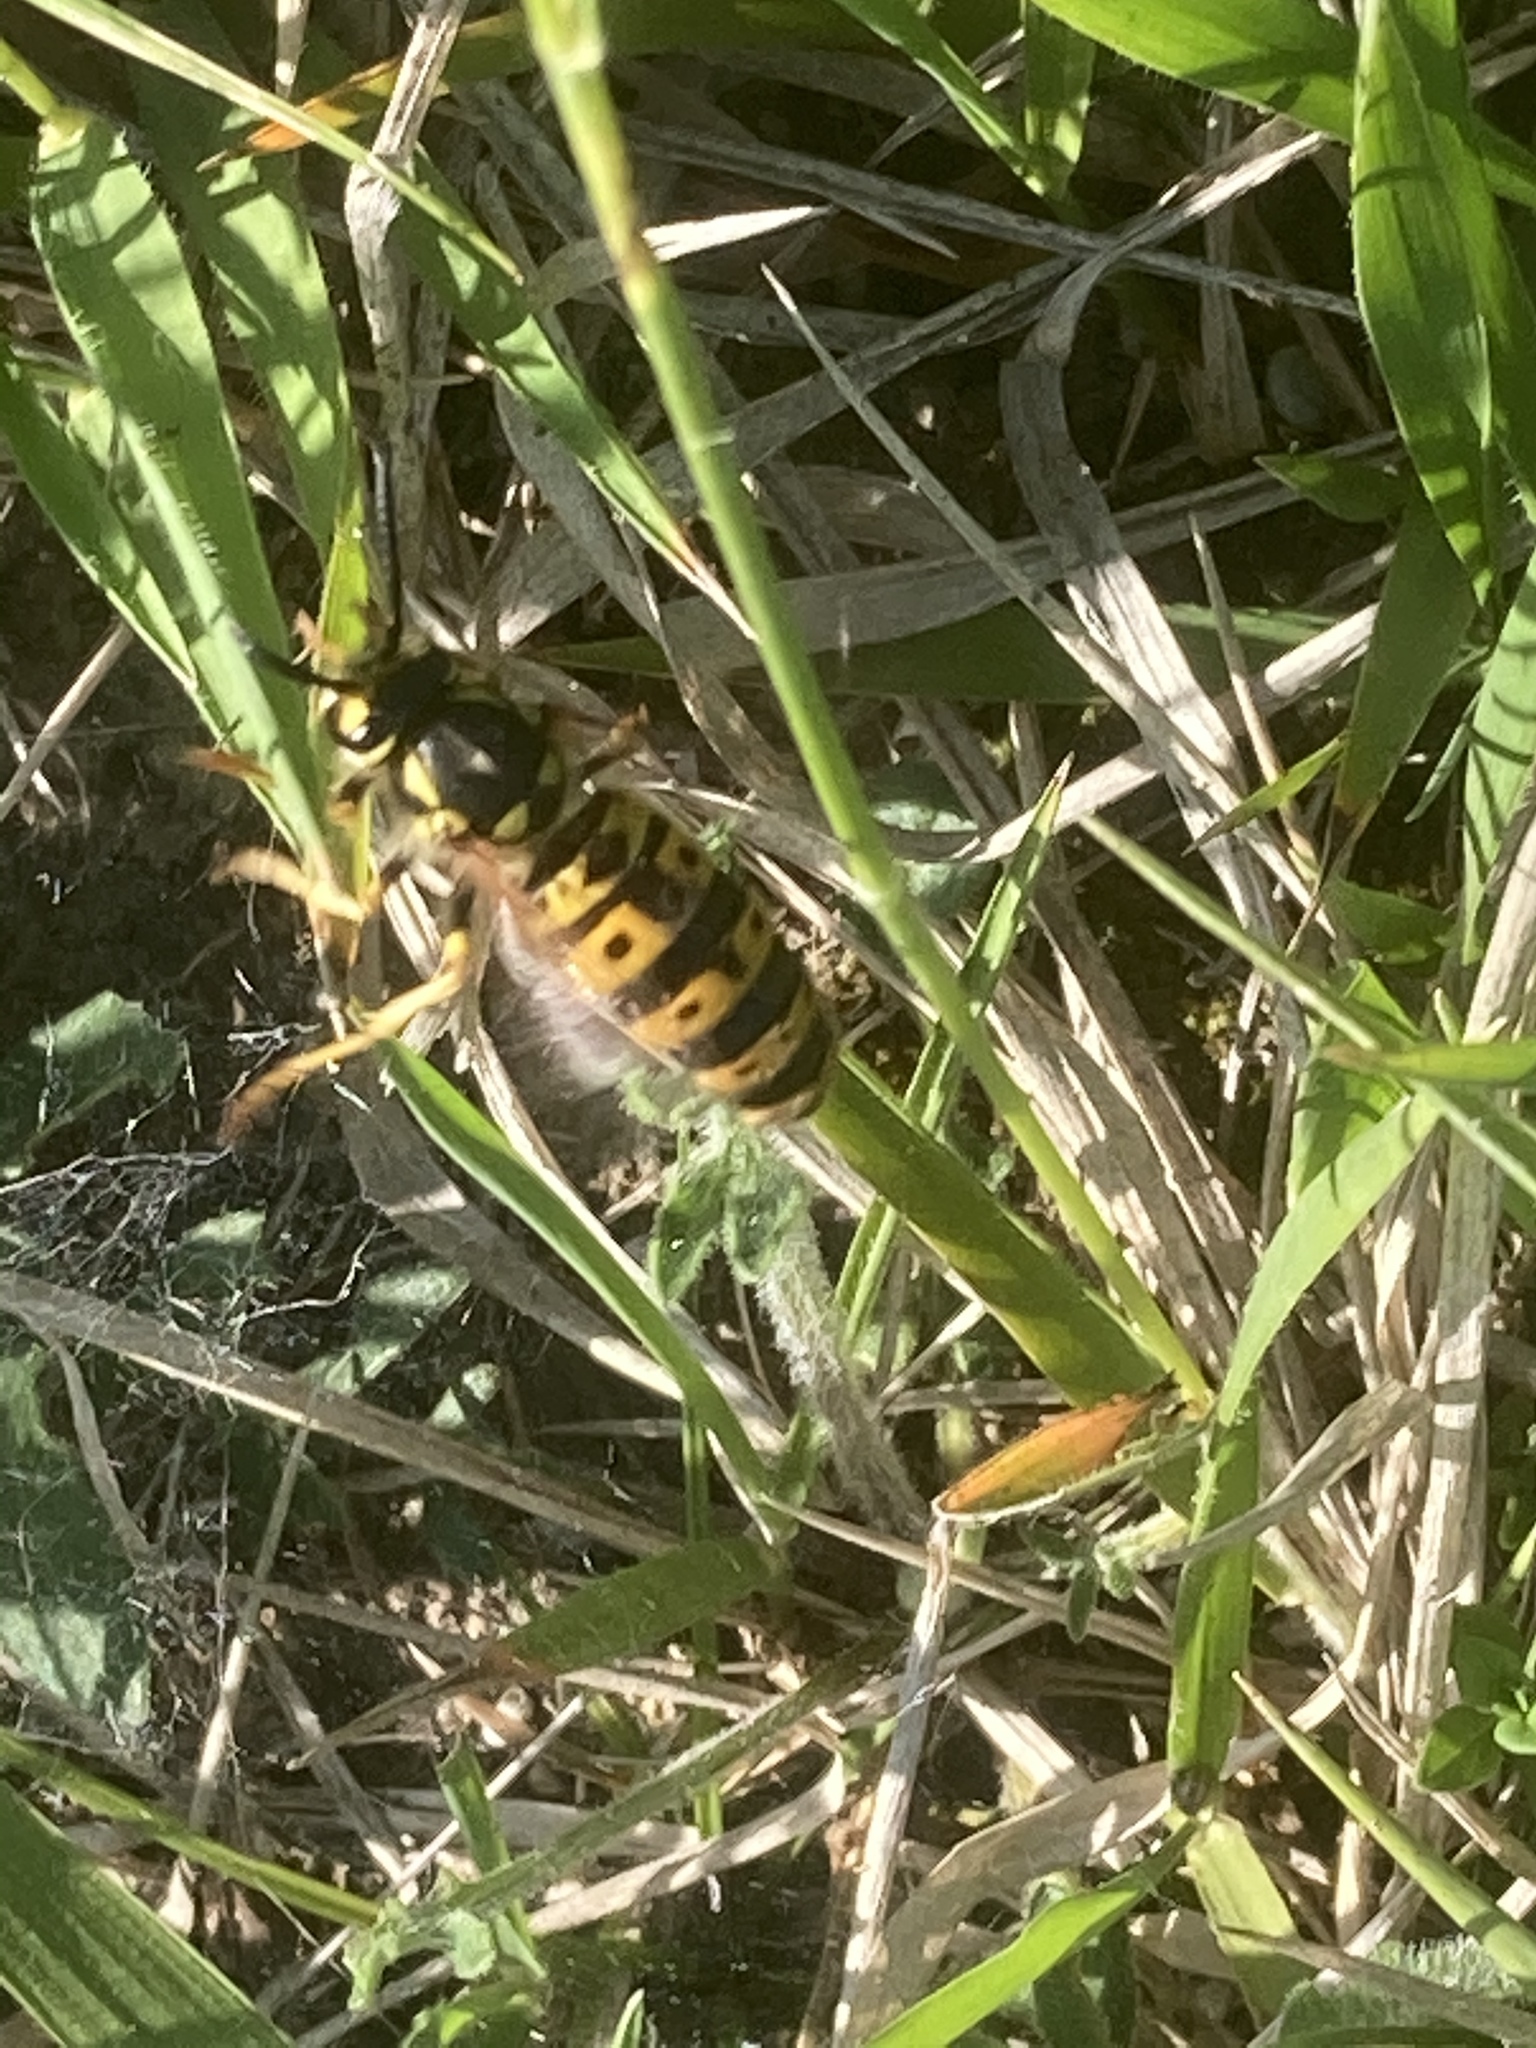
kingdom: Animalia
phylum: Arthropoda
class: Insecta
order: Hymenoptera
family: Vespidae
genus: Vespula
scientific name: Vespula germanica
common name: German wasp
